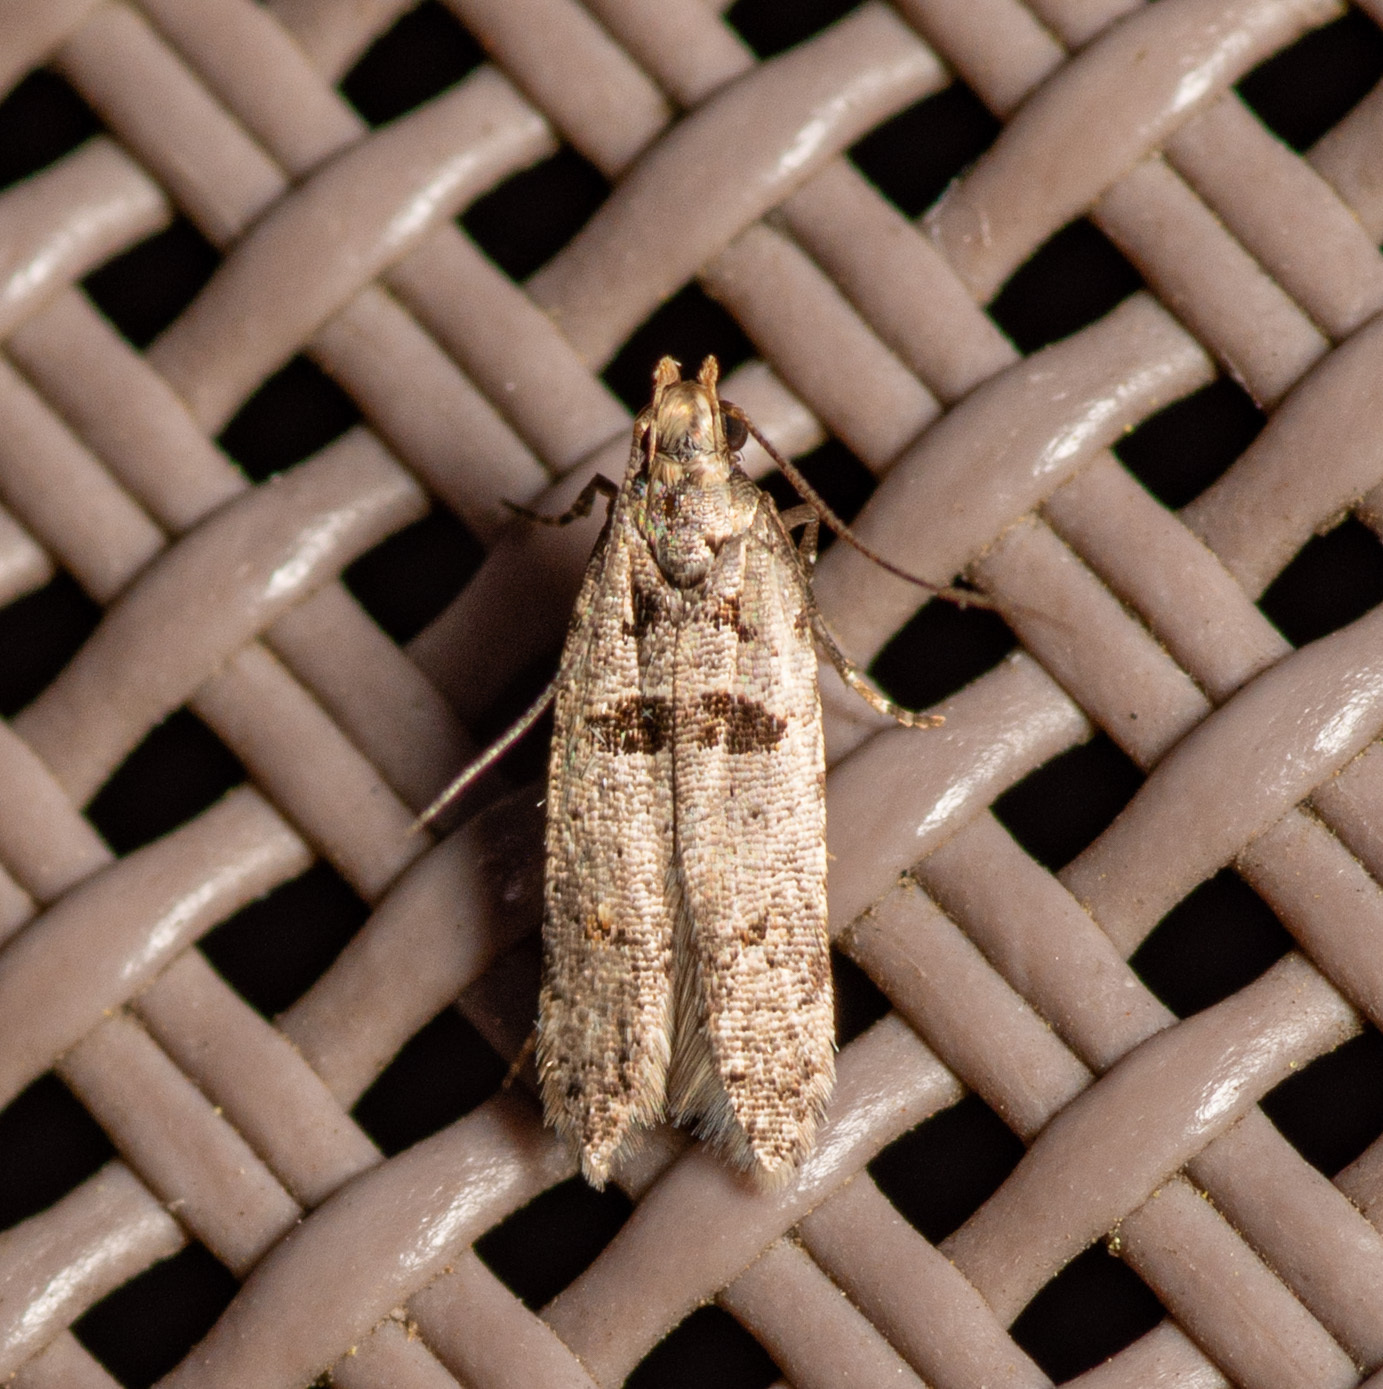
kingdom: Animalia
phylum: Arthropoda
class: Insecta
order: Lepidoptera
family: Gelechiidae
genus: Deltophora
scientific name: Deltophora glandiferella
